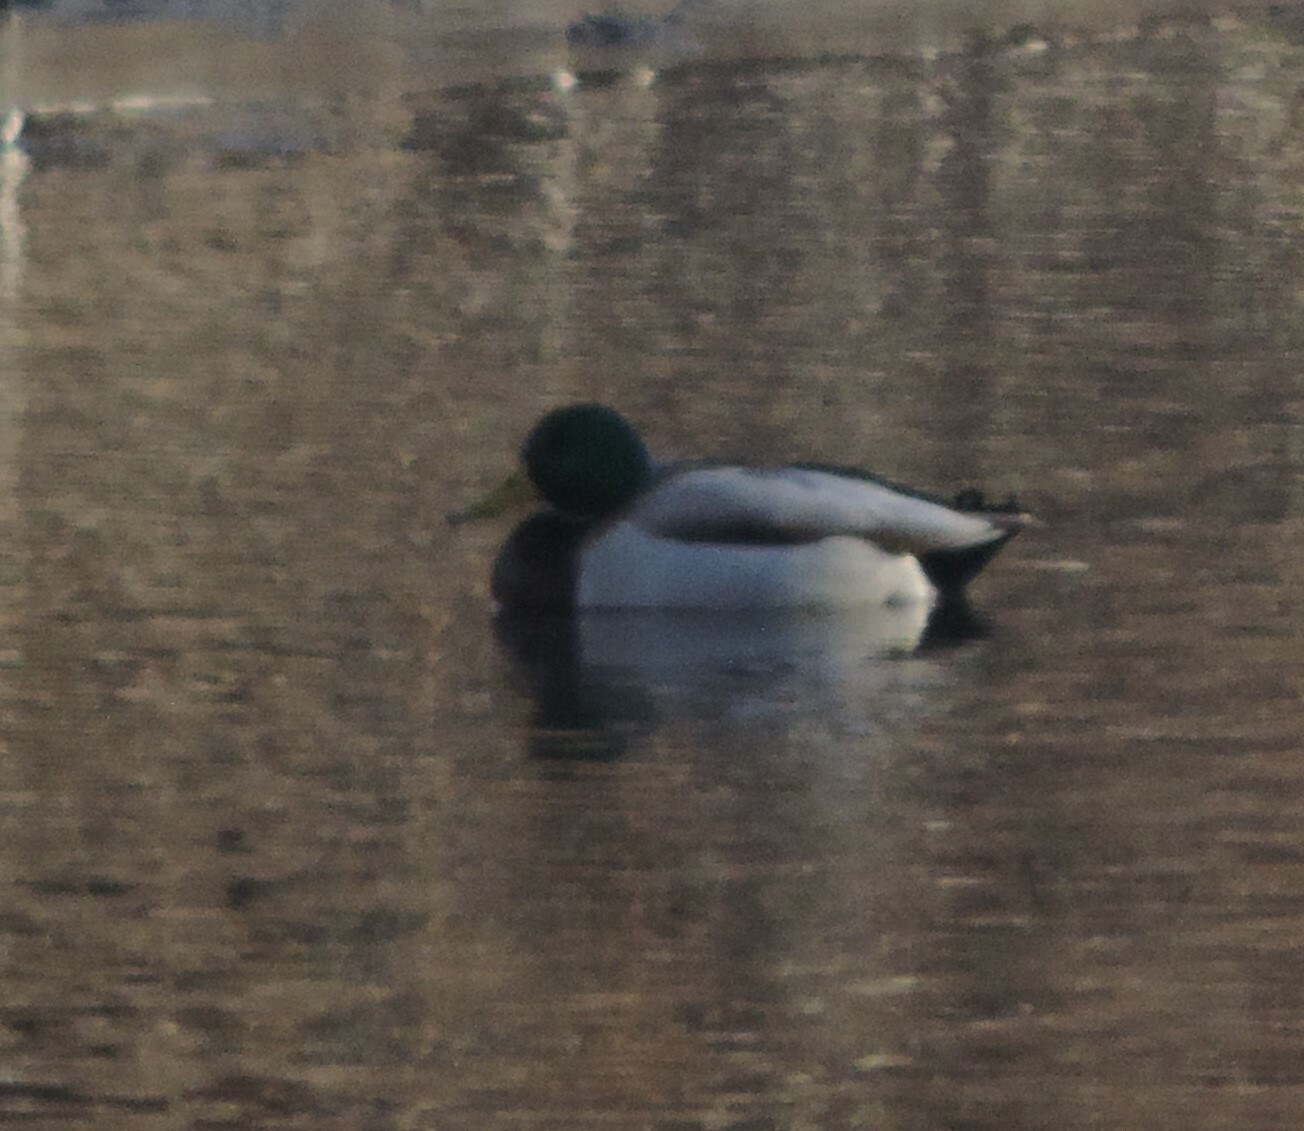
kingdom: Animalia
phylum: Chordata
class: Aves
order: Anseriformes
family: Anatidae
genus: Anas
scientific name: Anas platyrhynchos
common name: Mallard
